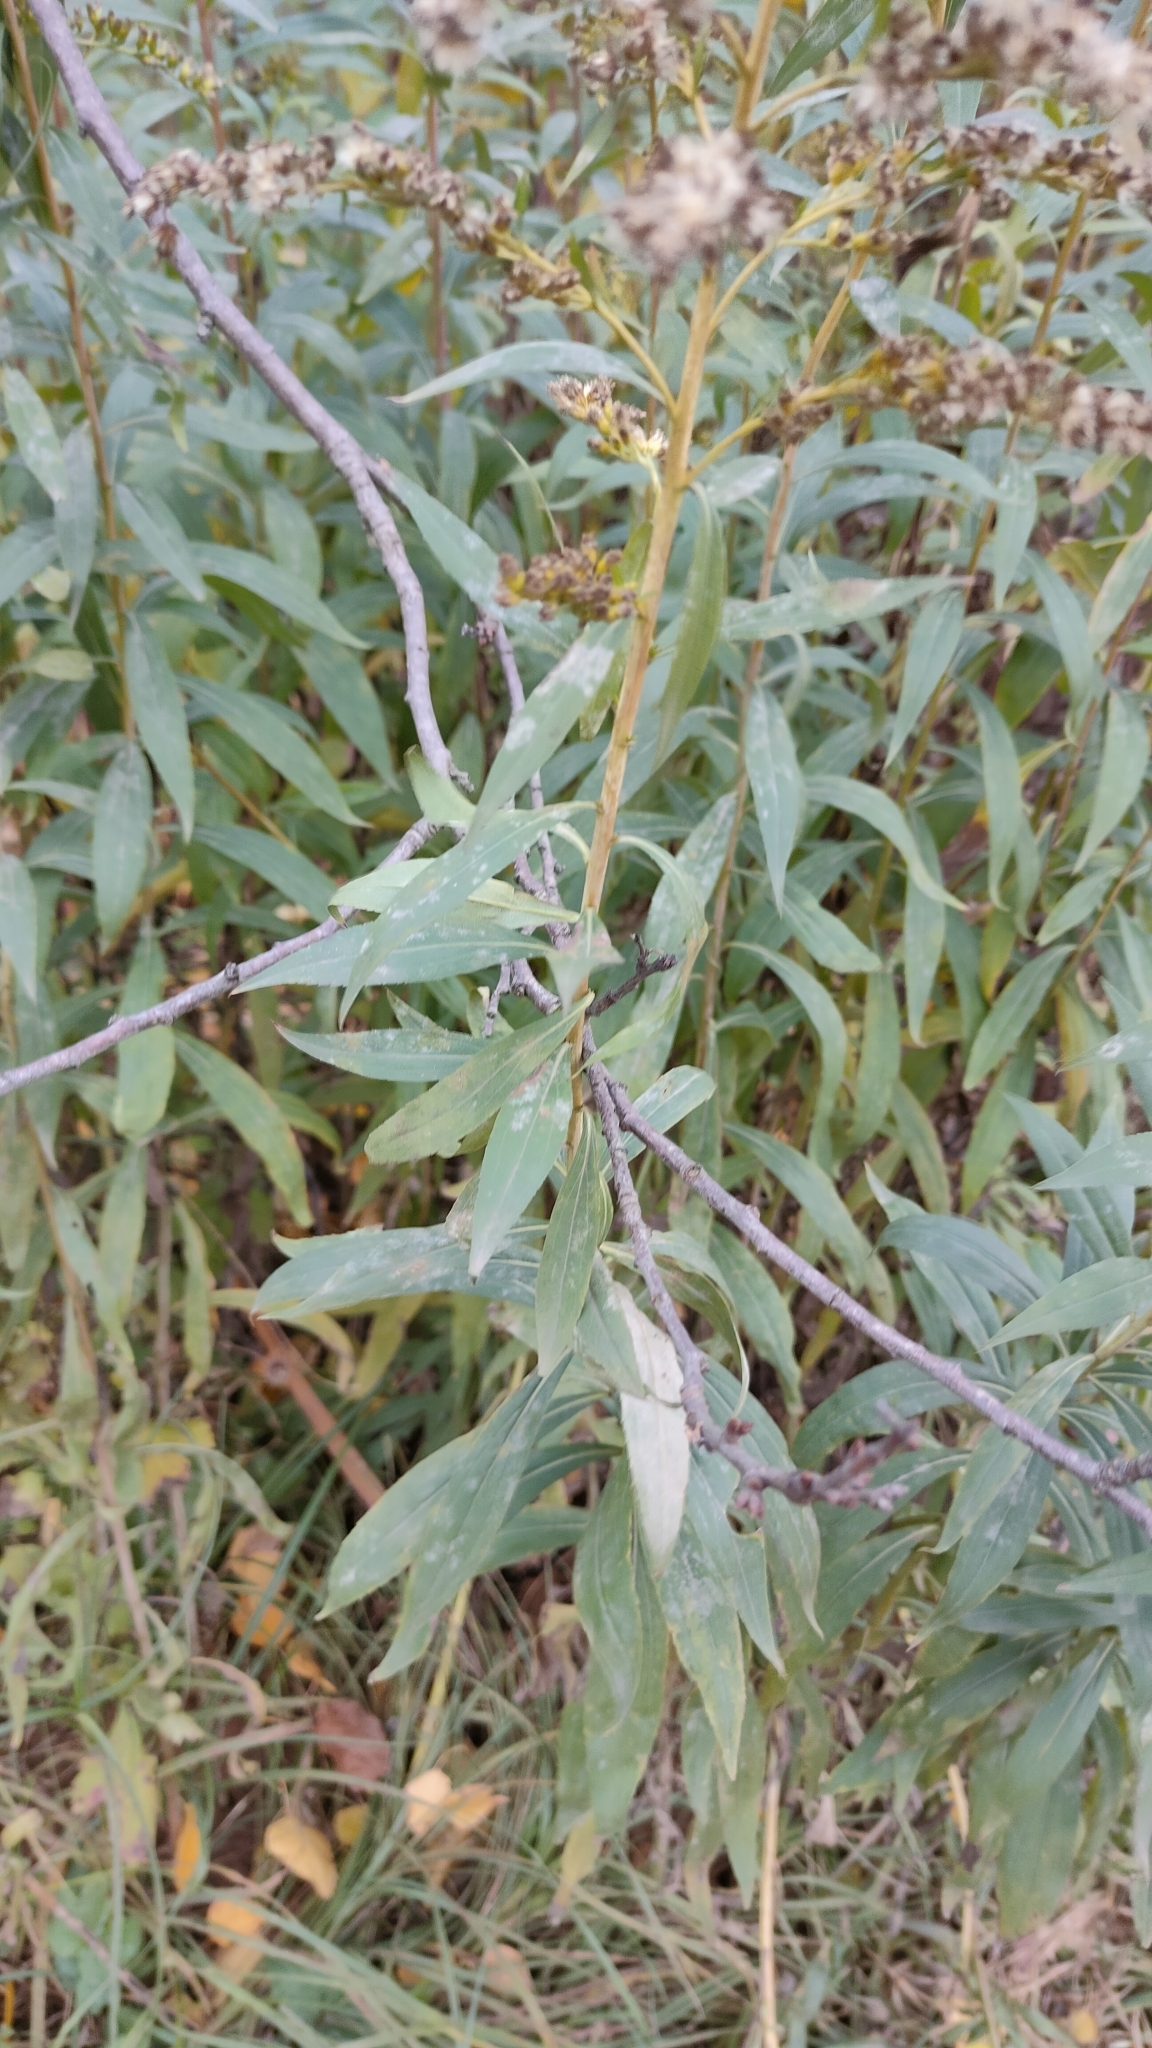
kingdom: Plantae
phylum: Tracheophyta
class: Magnoliopsida
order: Asterales
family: Asteraceae
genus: Solidago
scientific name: Solidago gigantea
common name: Giant goldenrod
